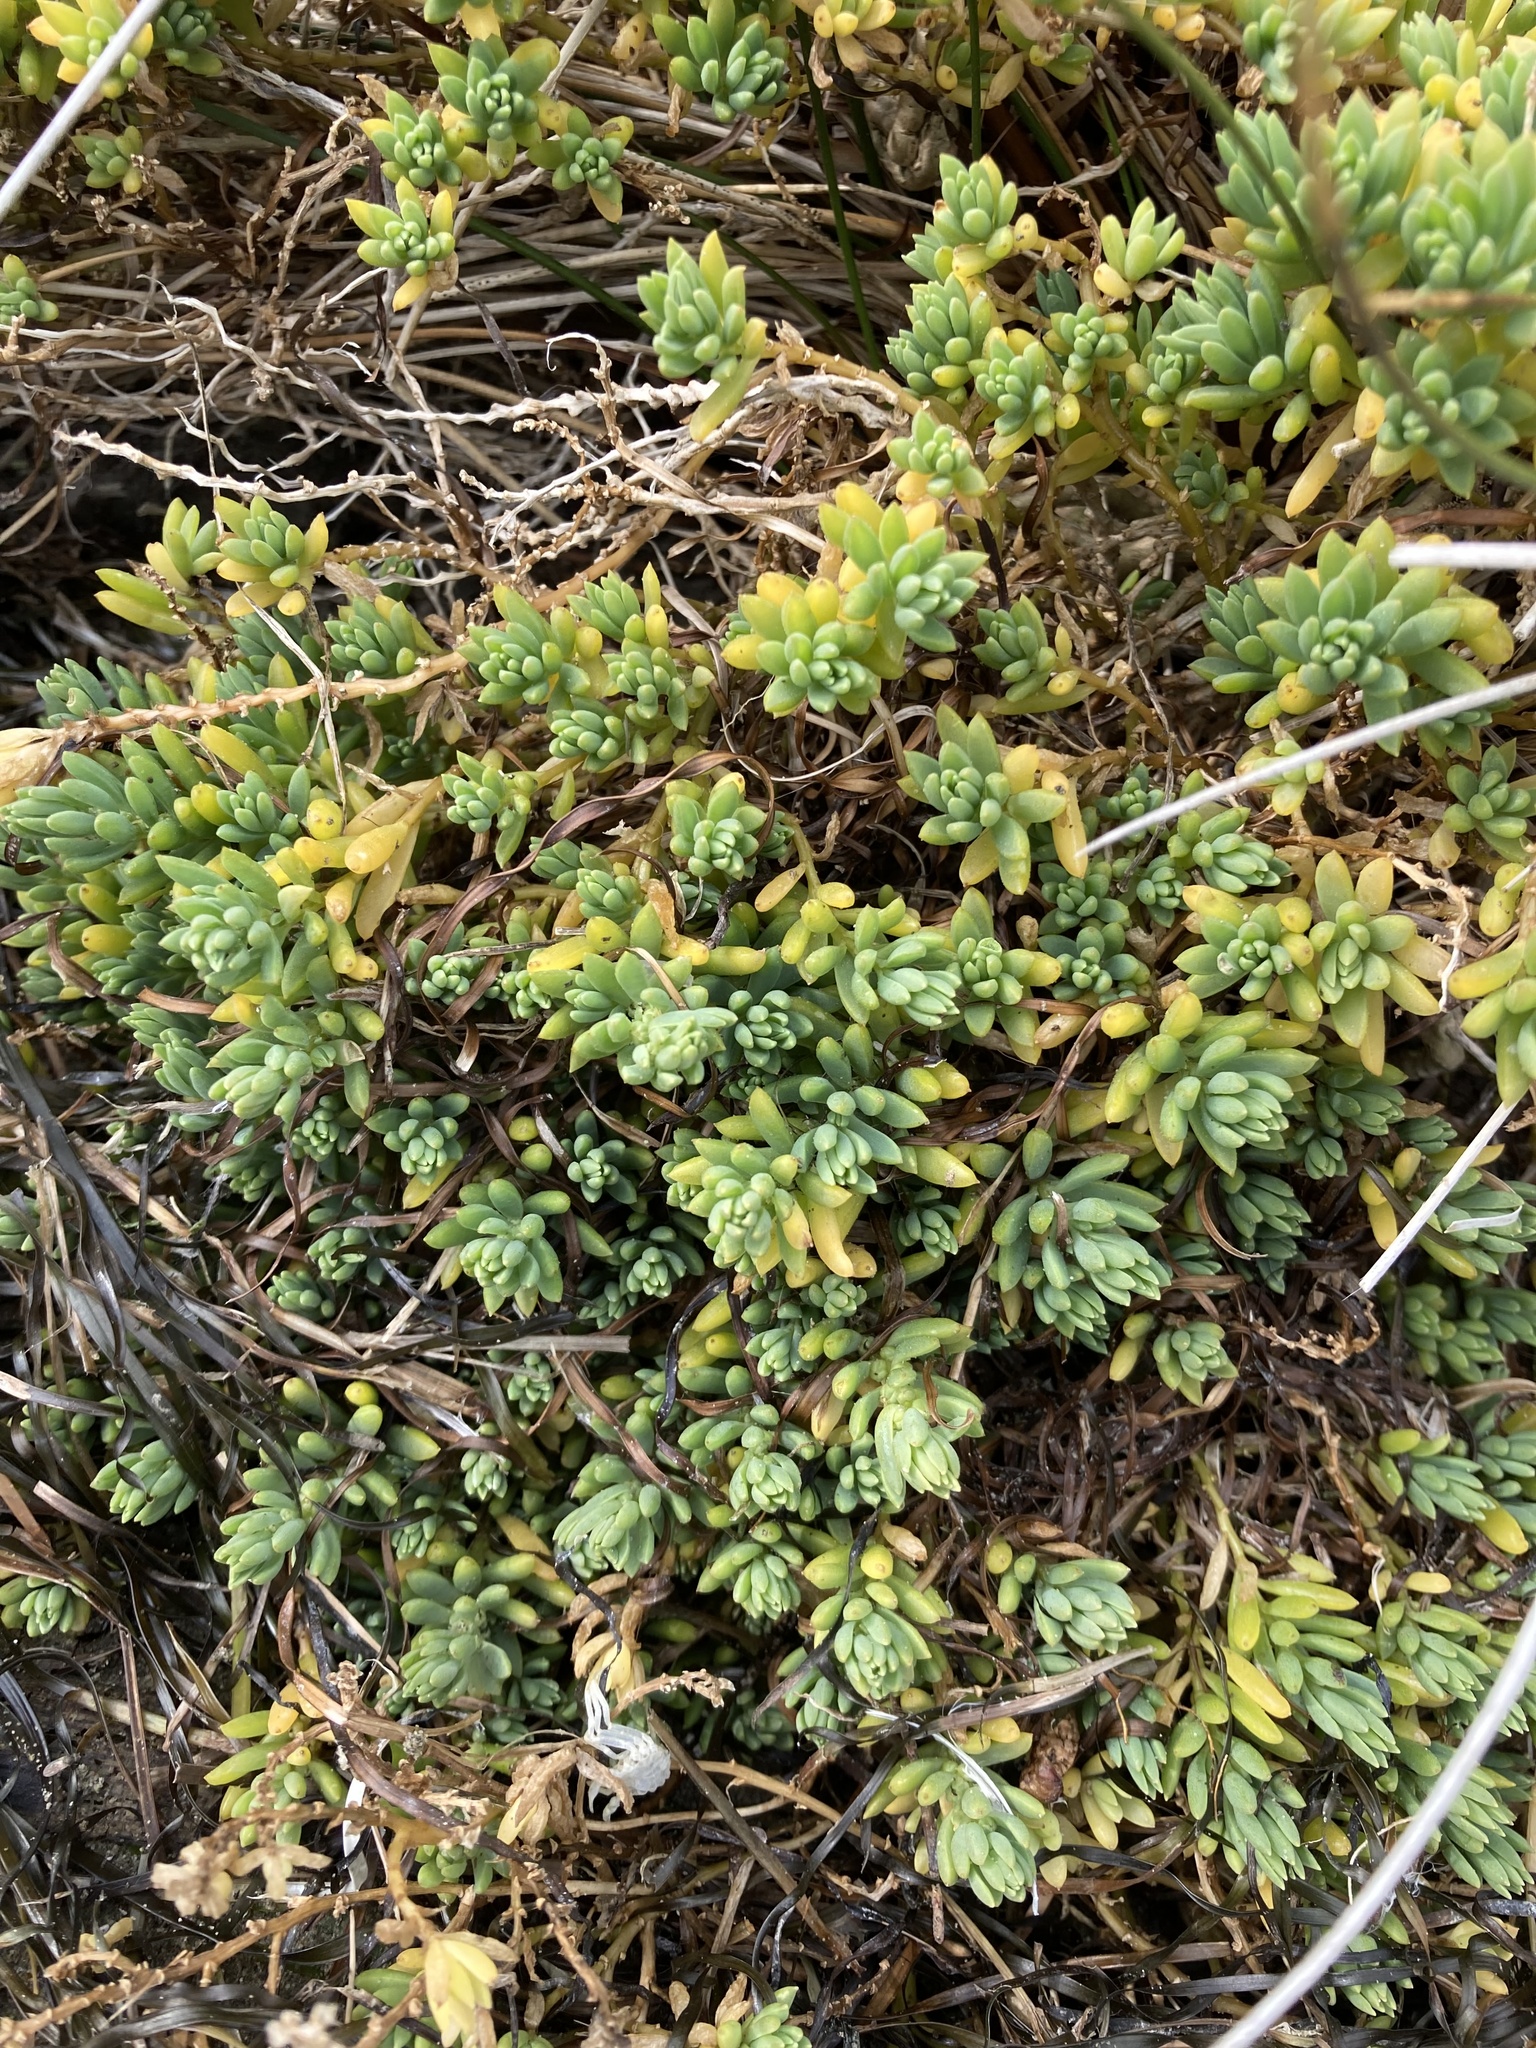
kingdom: Plantae
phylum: Tracheophyta
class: Magnoliopsida
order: Caryophyllales
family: Amaranthaceae
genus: Suaeda
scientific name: Suaeda novae-zelandiae
